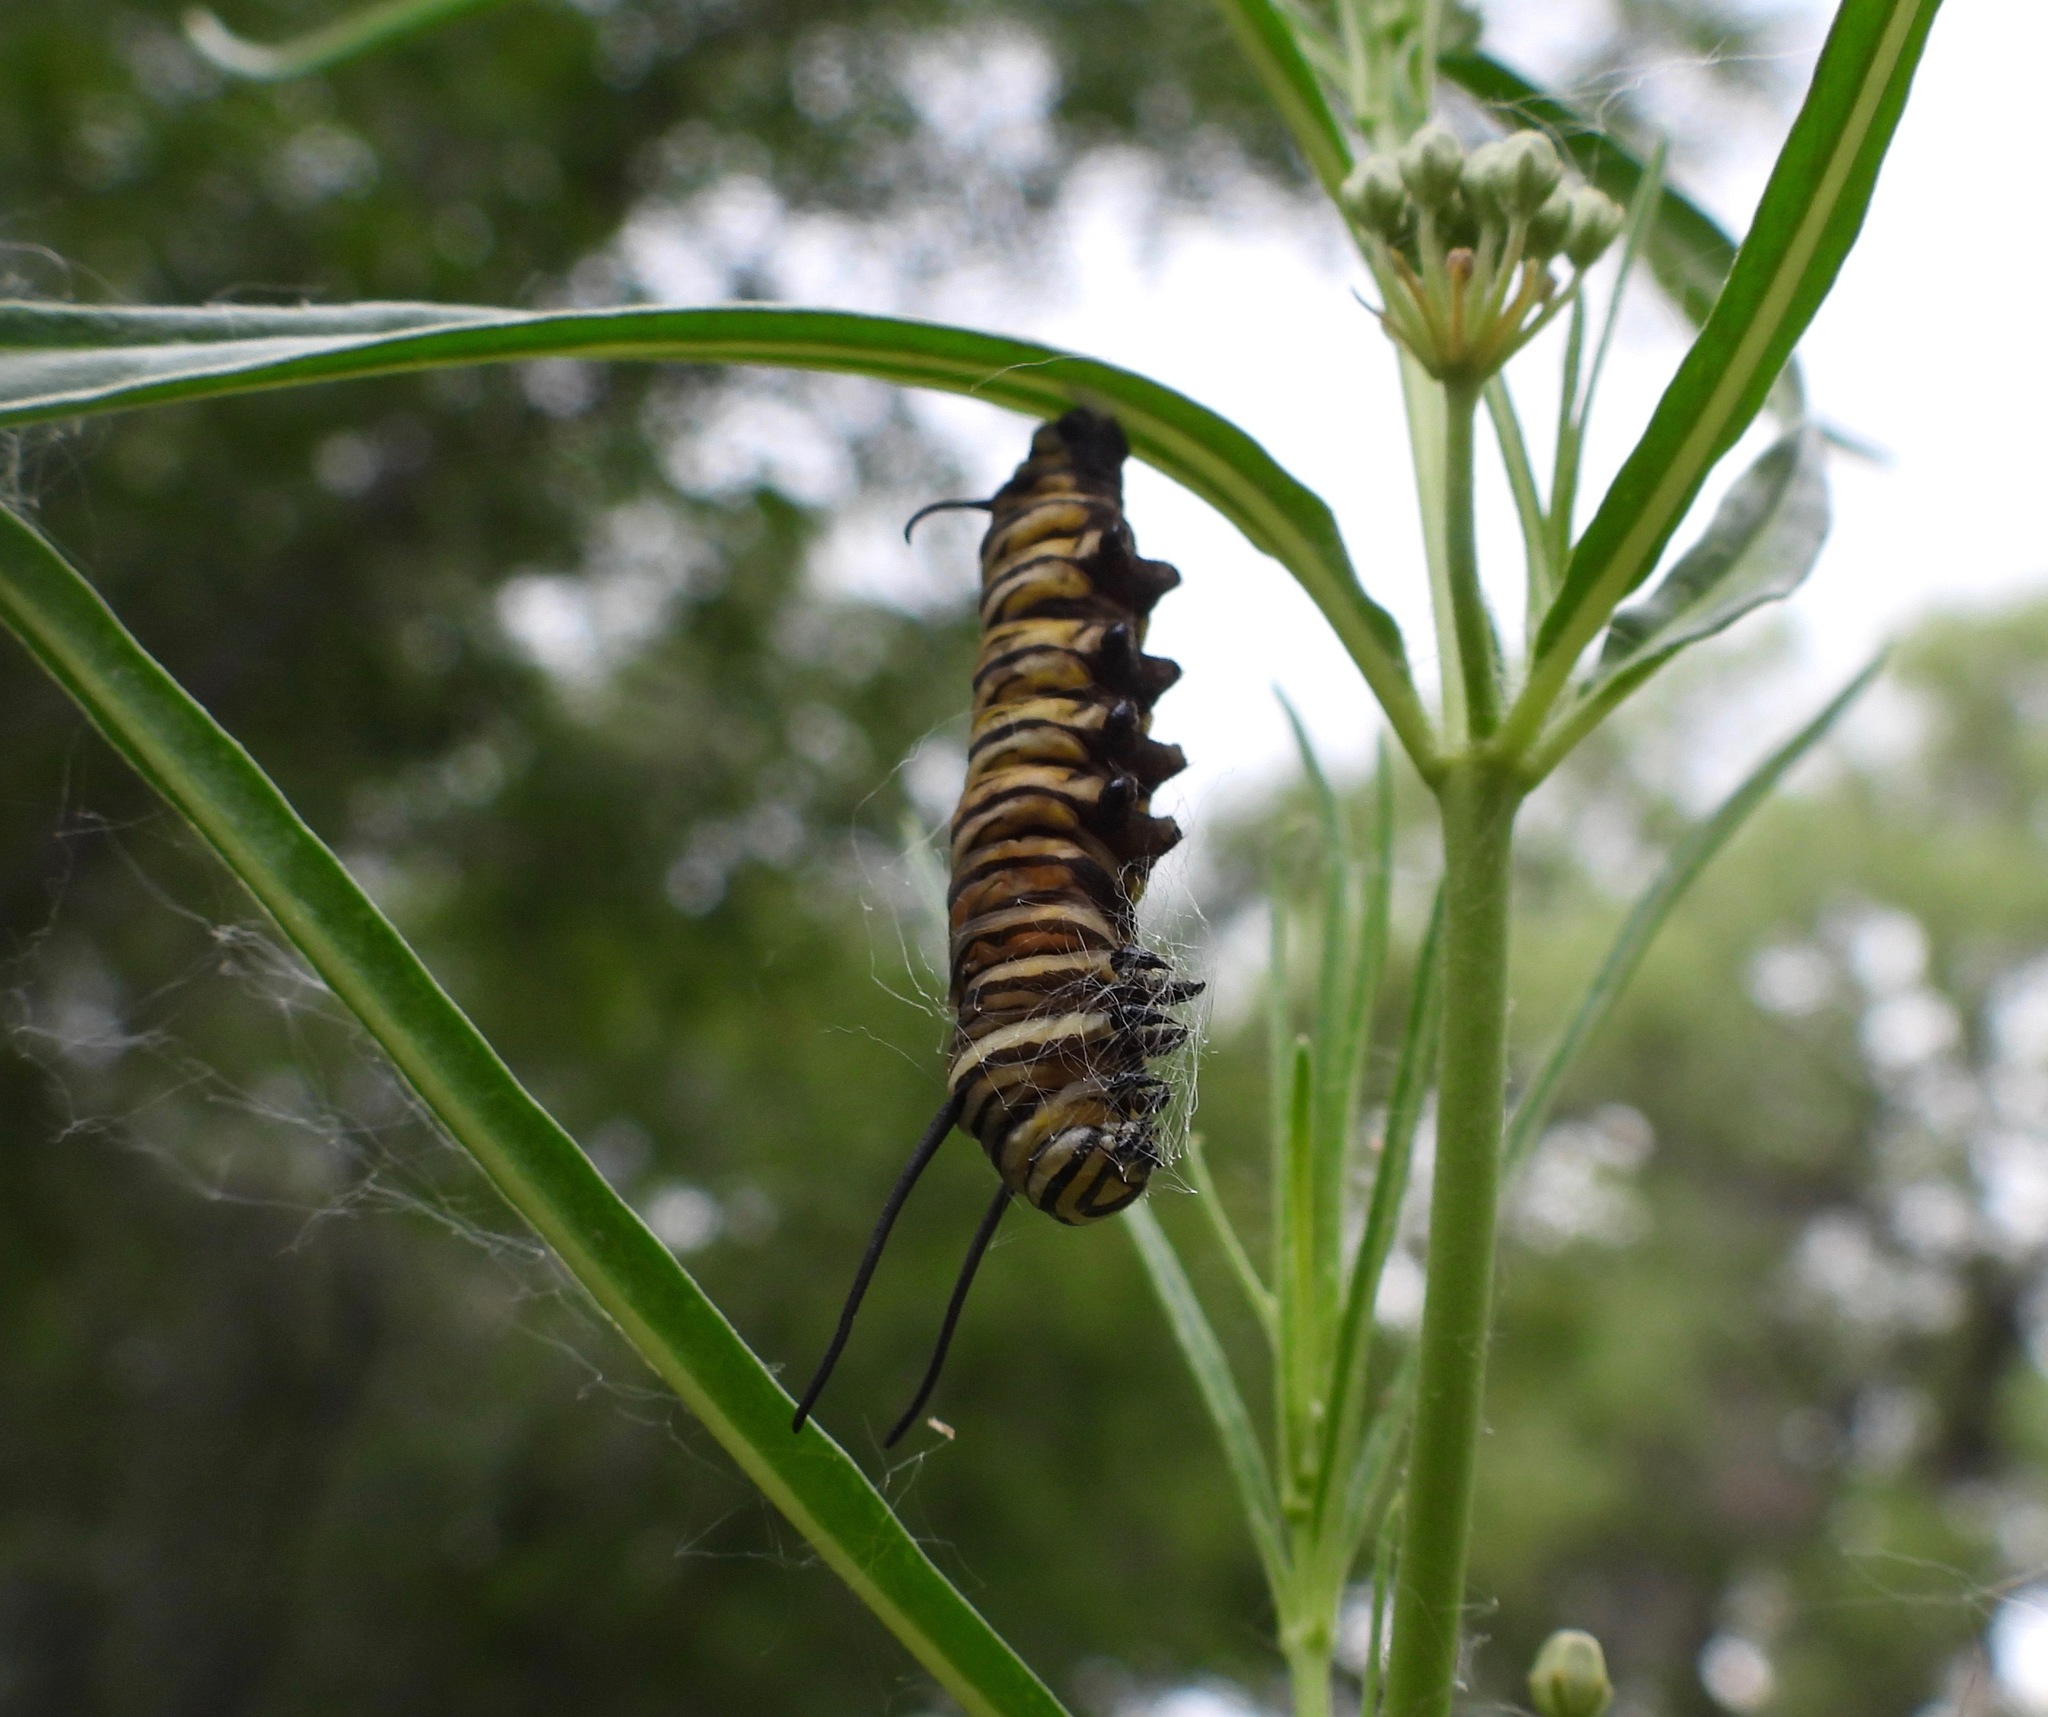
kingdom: Animalia
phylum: Arthropoda
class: Insecta
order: Lepidoptera
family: Nymphalidae
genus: Danaus
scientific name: Danaus plexippus
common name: Monarch
